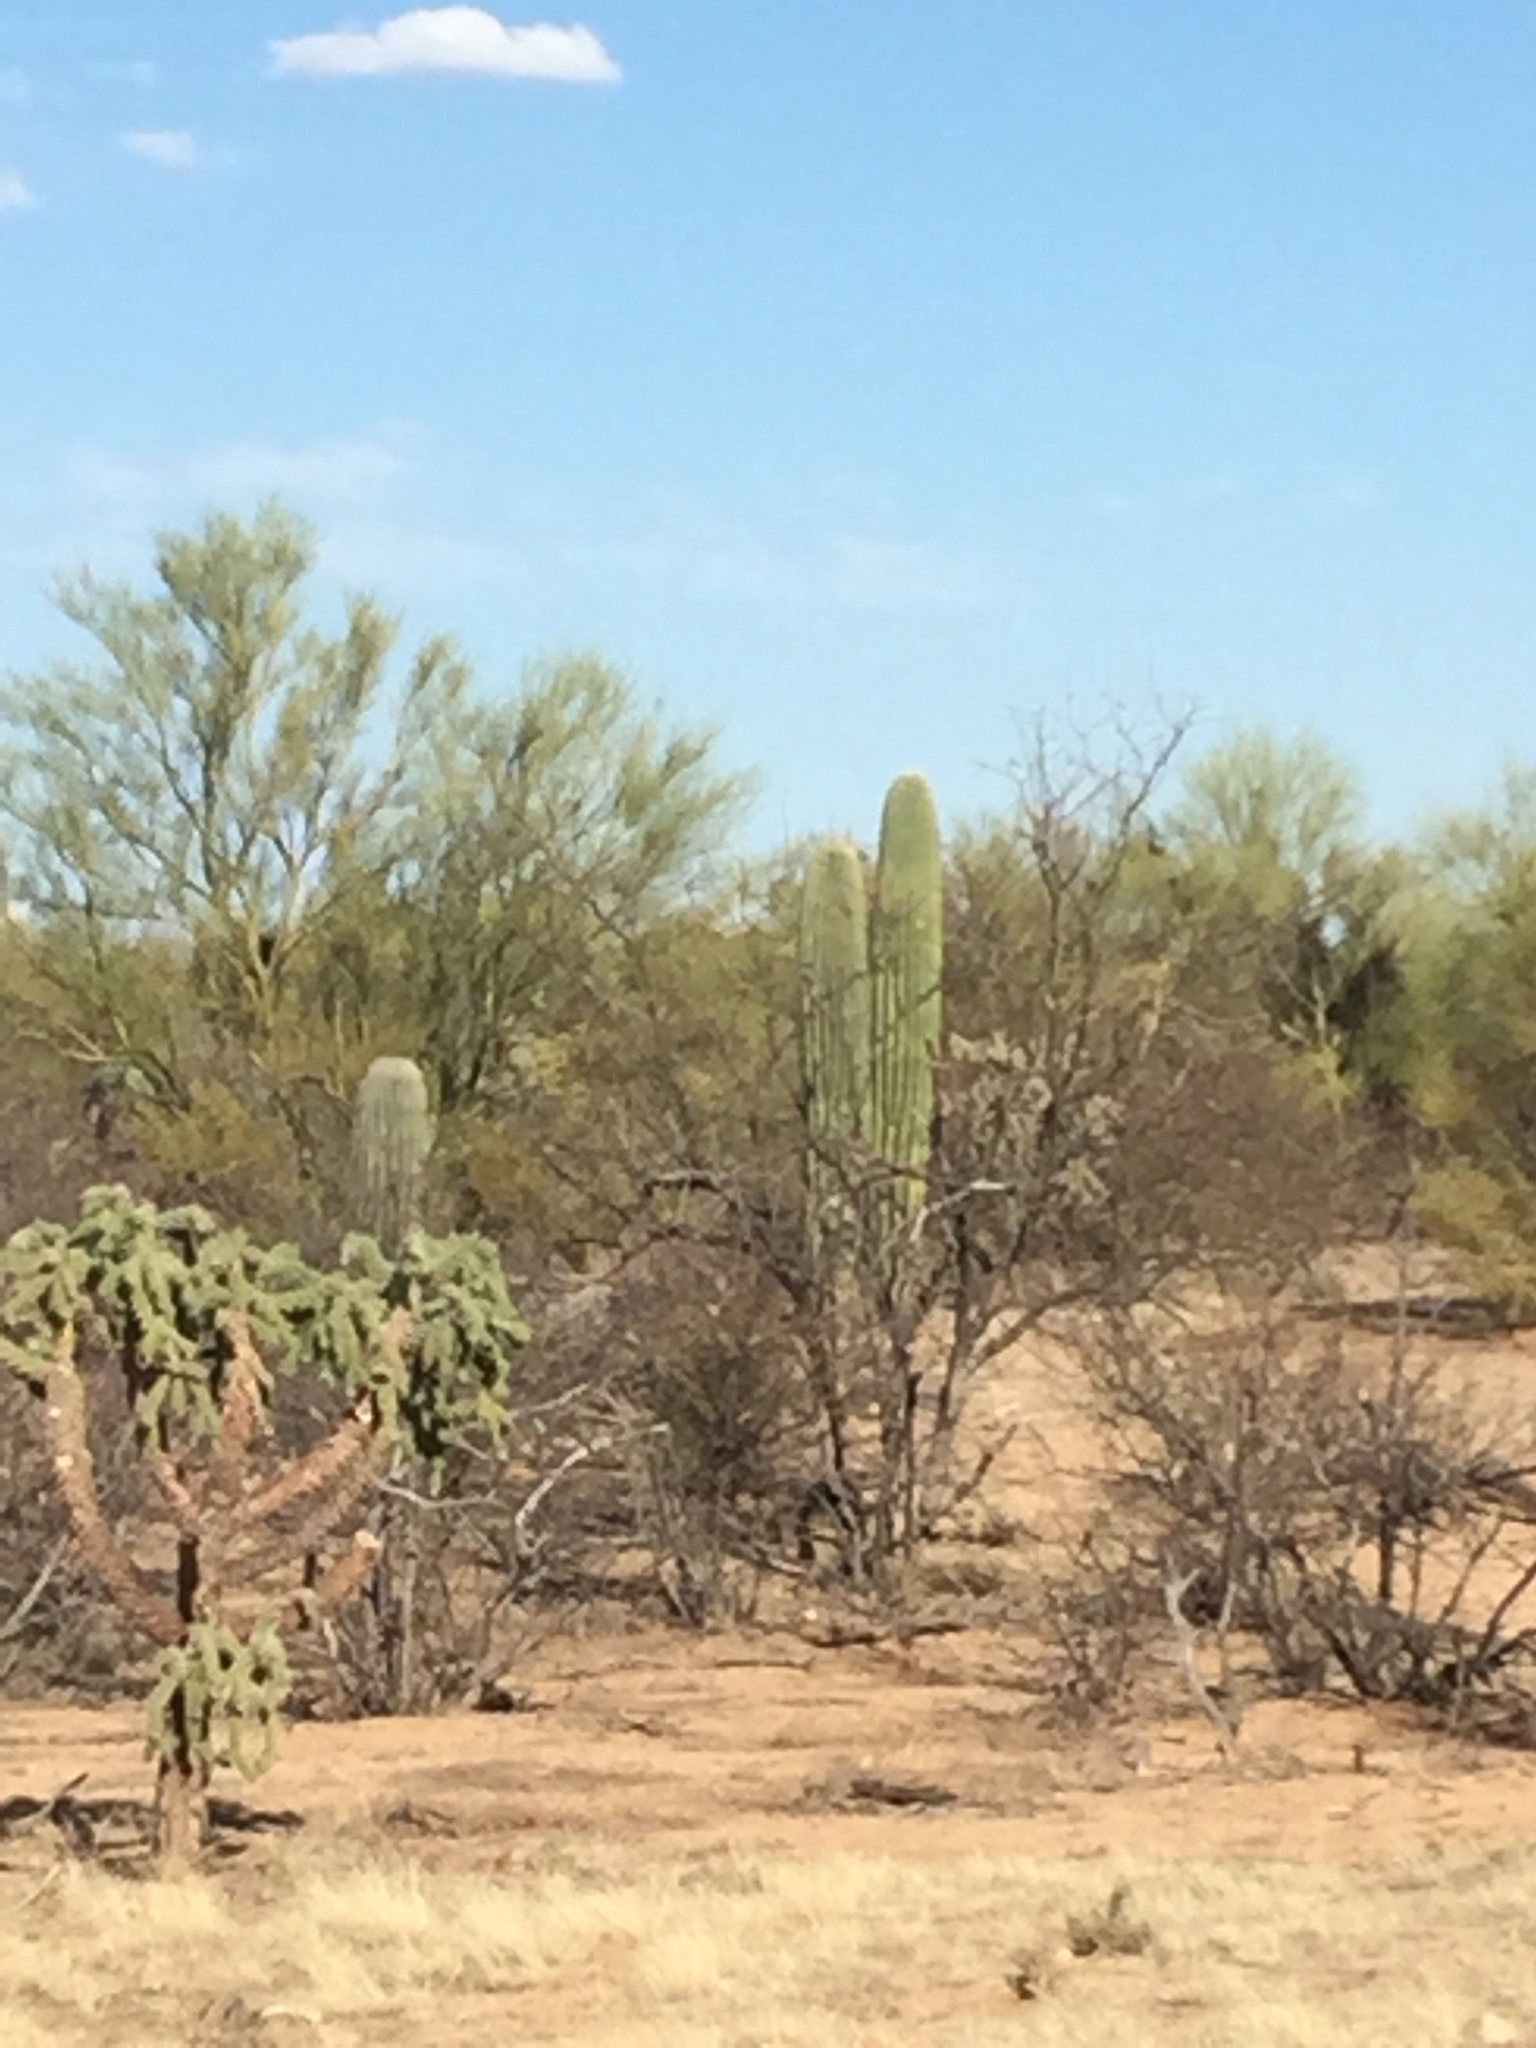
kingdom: Plantae
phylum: Tracheophyta
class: Magnoliopsida
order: Caryophyllales
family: Cactaceae
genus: Cylindropuntia
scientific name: Cylindropuntia fulgida
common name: Jumping cholla
